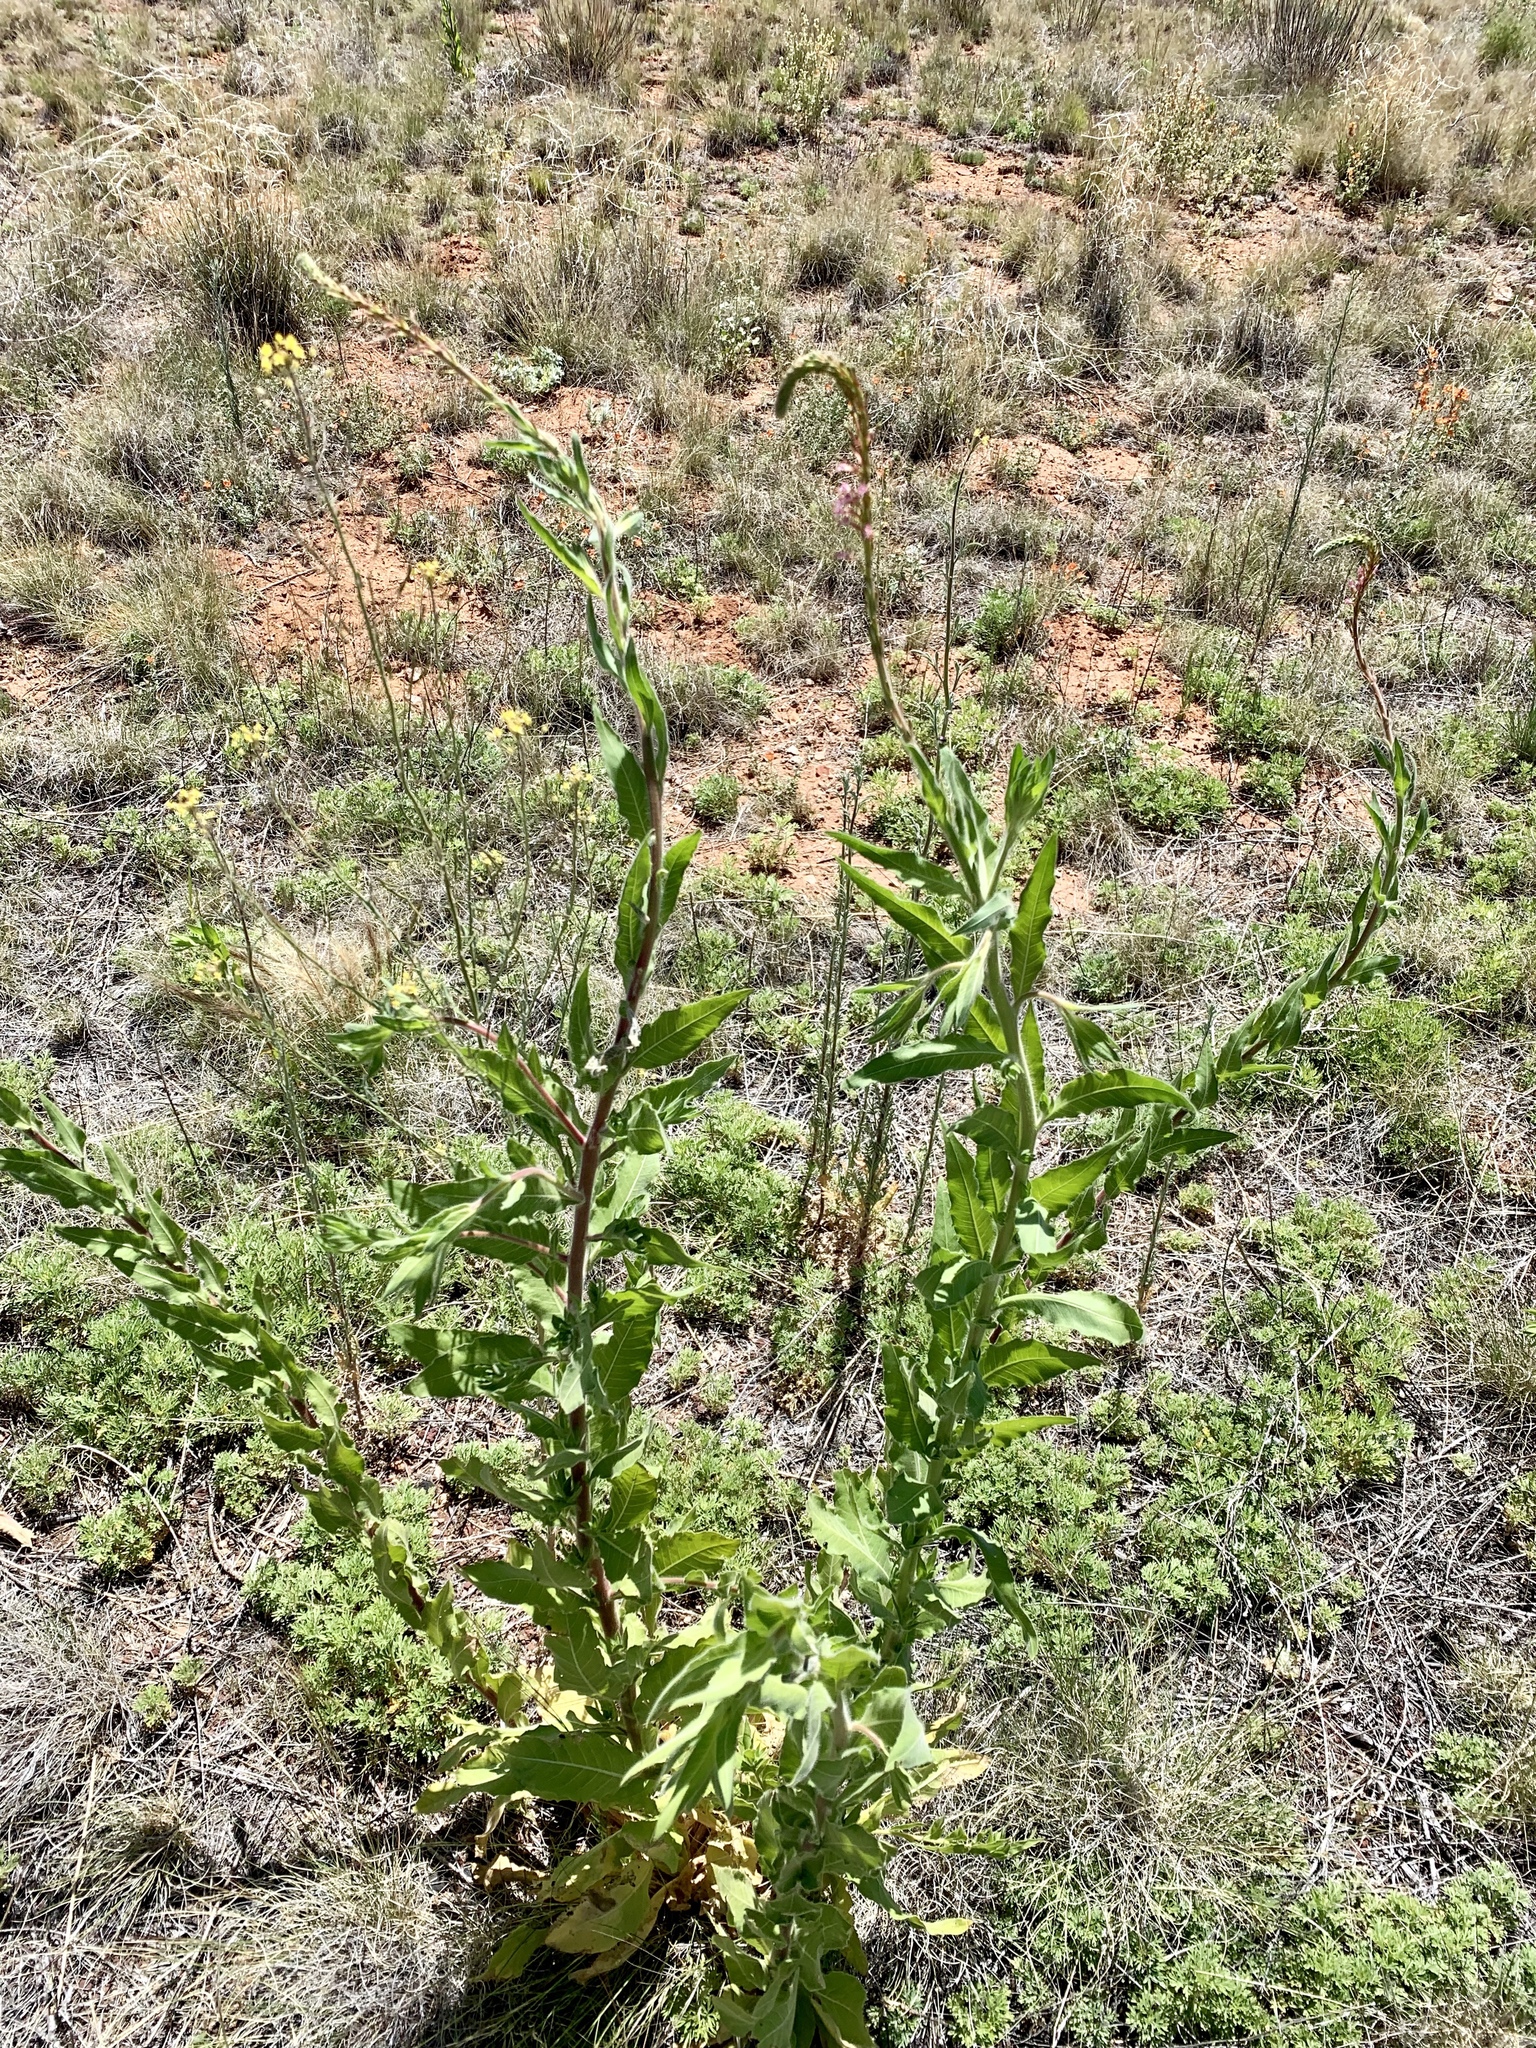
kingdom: Plantae
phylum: Tracheophyta
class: Magnoliopsida
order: Myrtales
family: Onagraceae
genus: Oenothera
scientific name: Oenothera curtiflora
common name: Velvetweed
